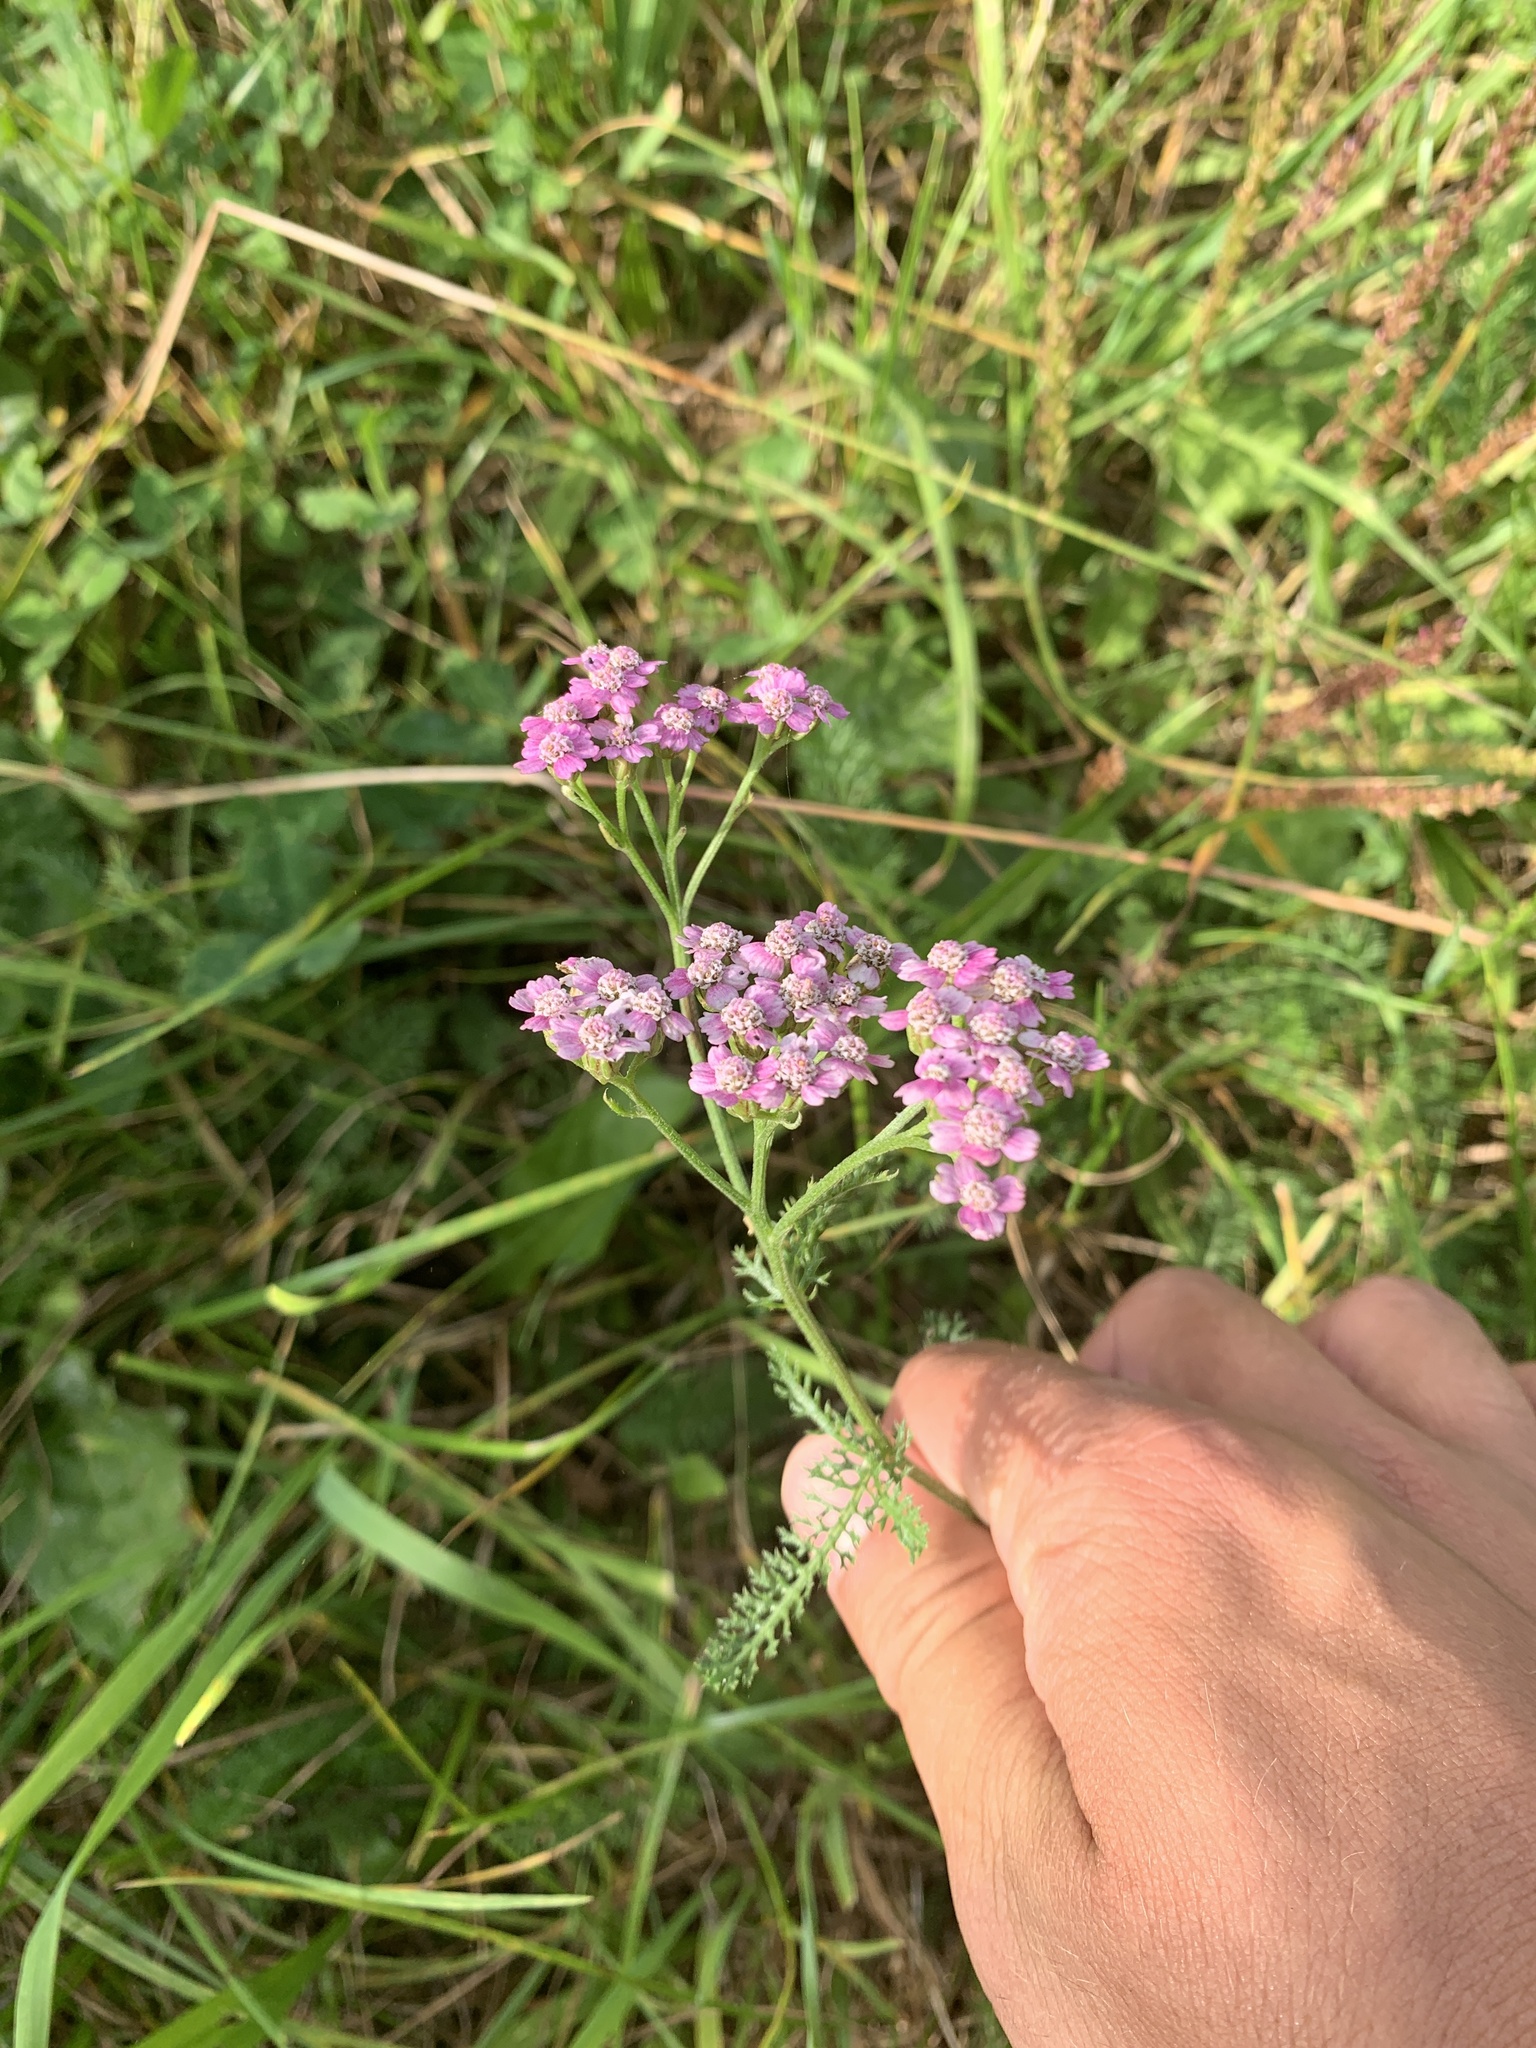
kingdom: Plantae
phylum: Tracheophyta
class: Magnoliopsida
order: Asterales
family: Asteraceae
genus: Achillea
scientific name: Achillea millefolium
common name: Yarrow
